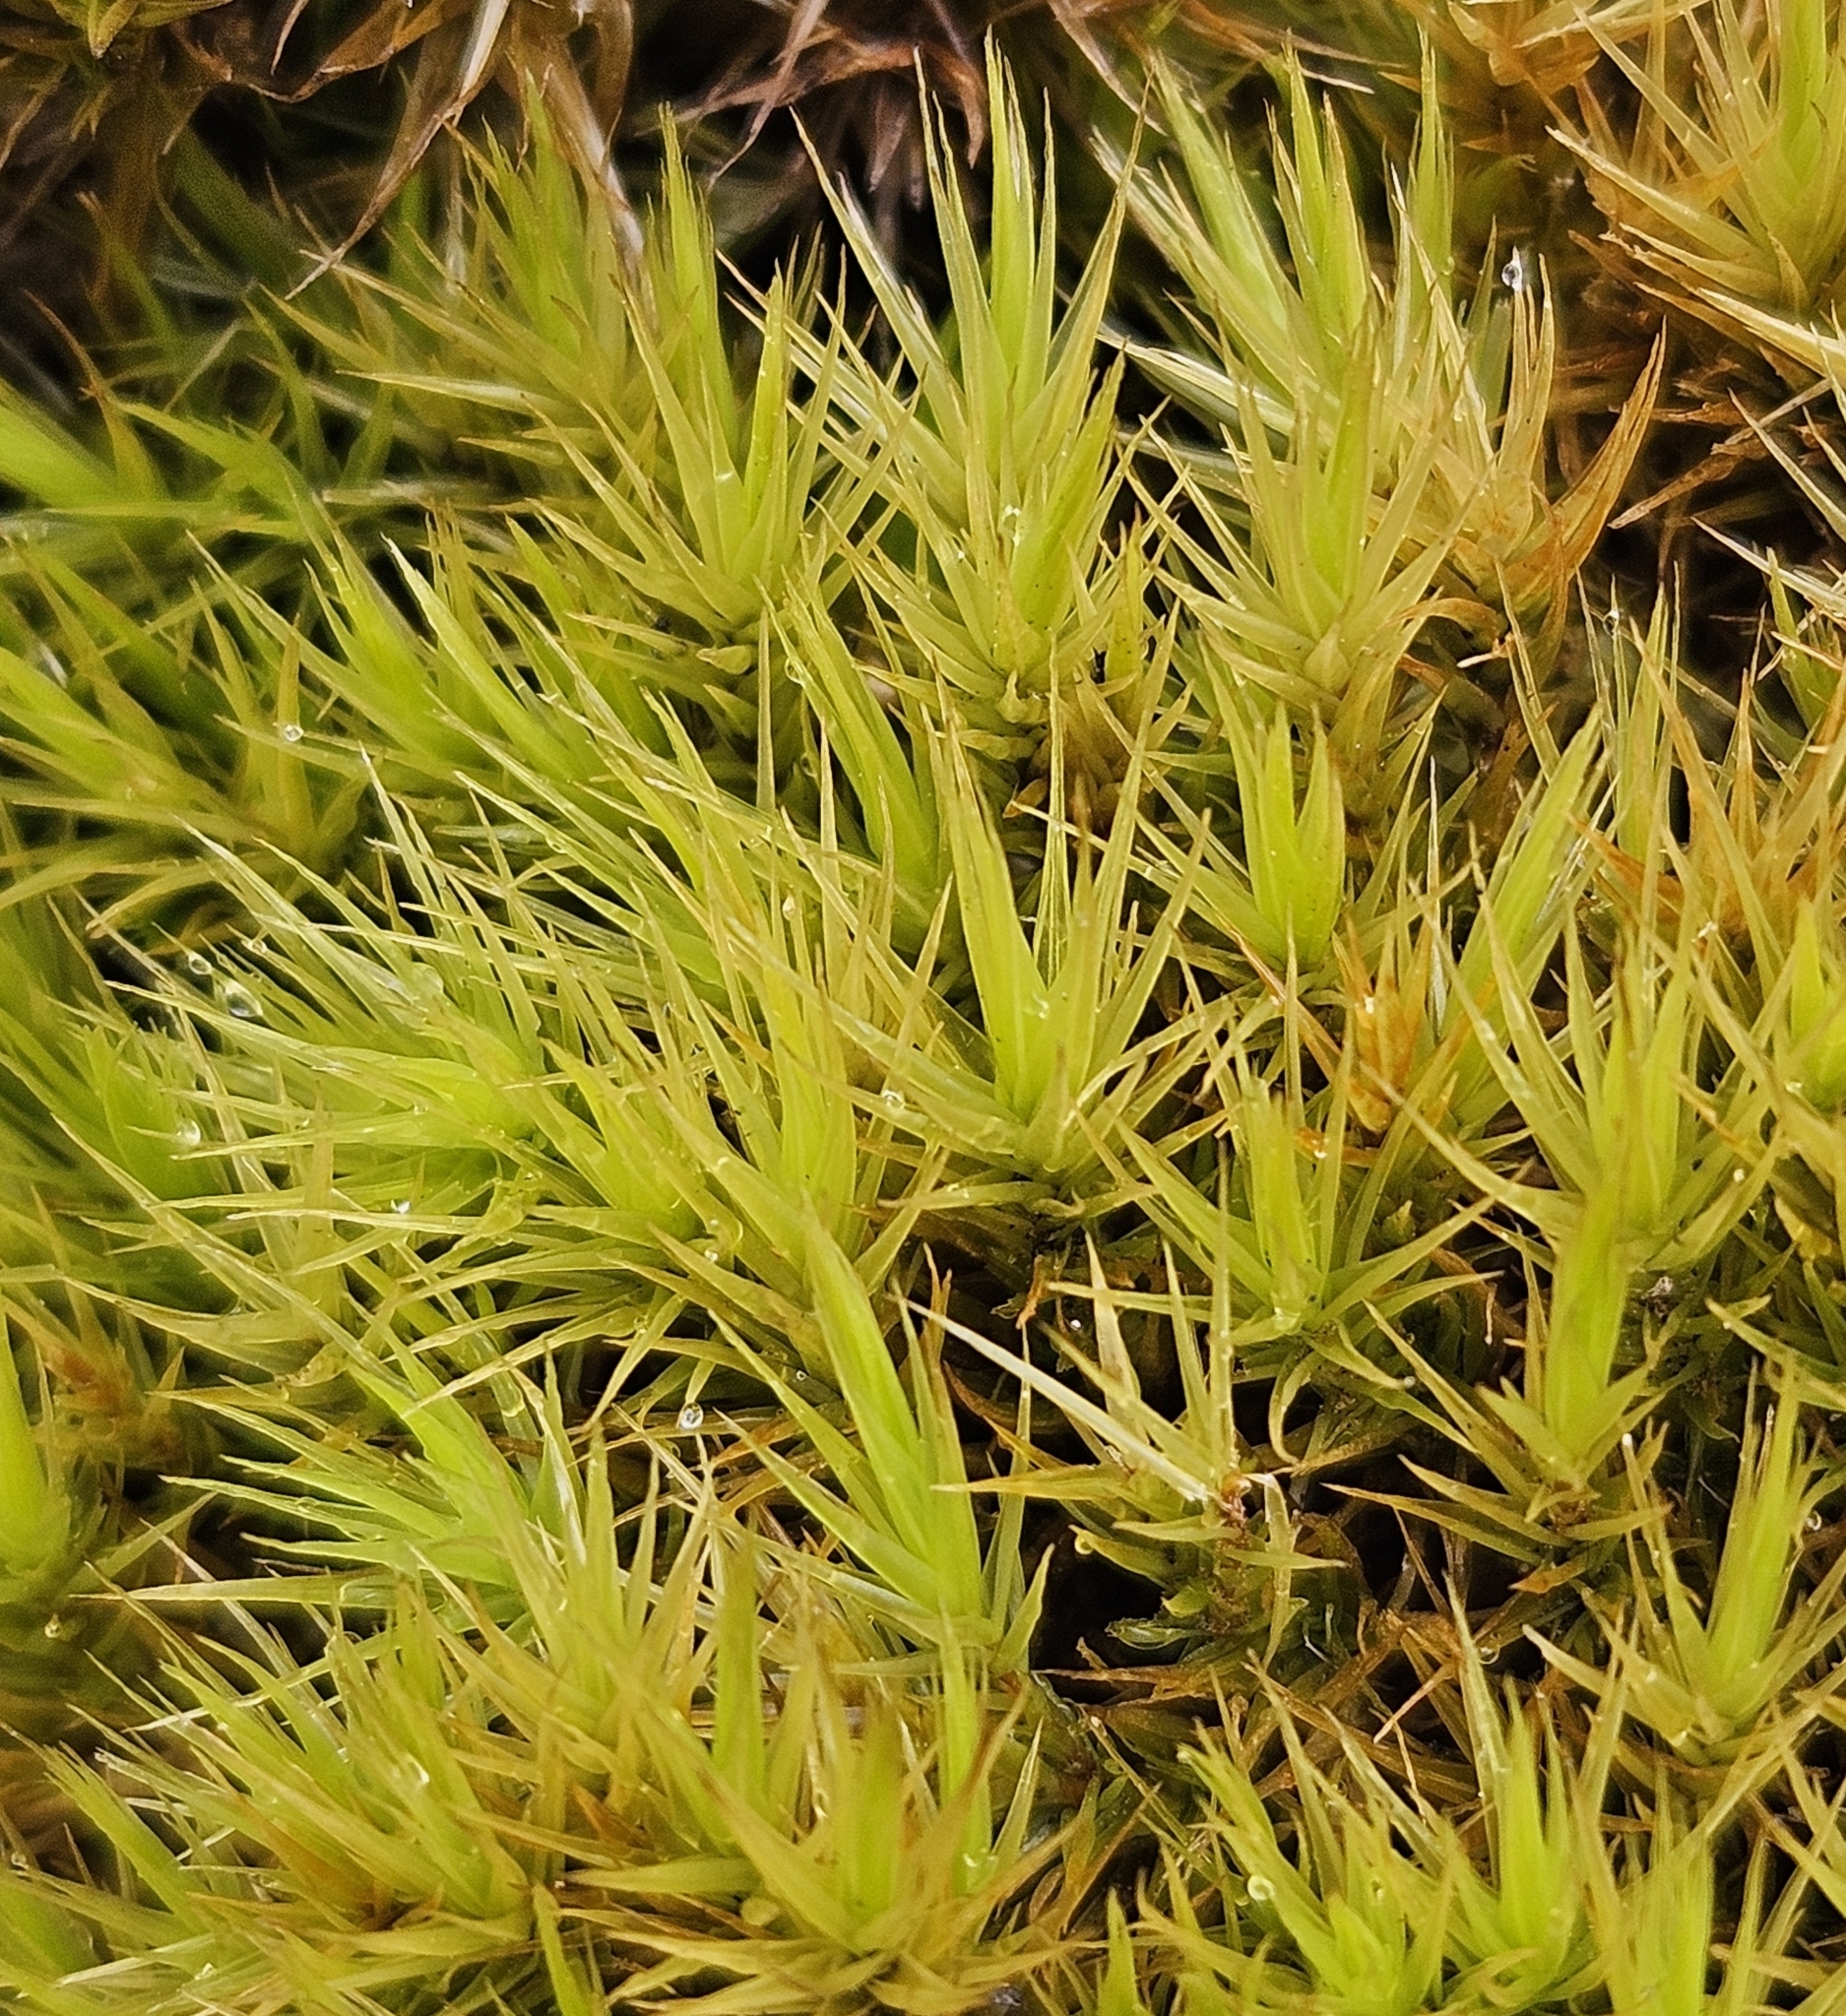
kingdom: Plantae
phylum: Bryophyta
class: Bryopsida
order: Dicranales
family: Dicranaceae
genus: Dicranum
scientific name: Dicranum scoparium
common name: Broom fork-moss
